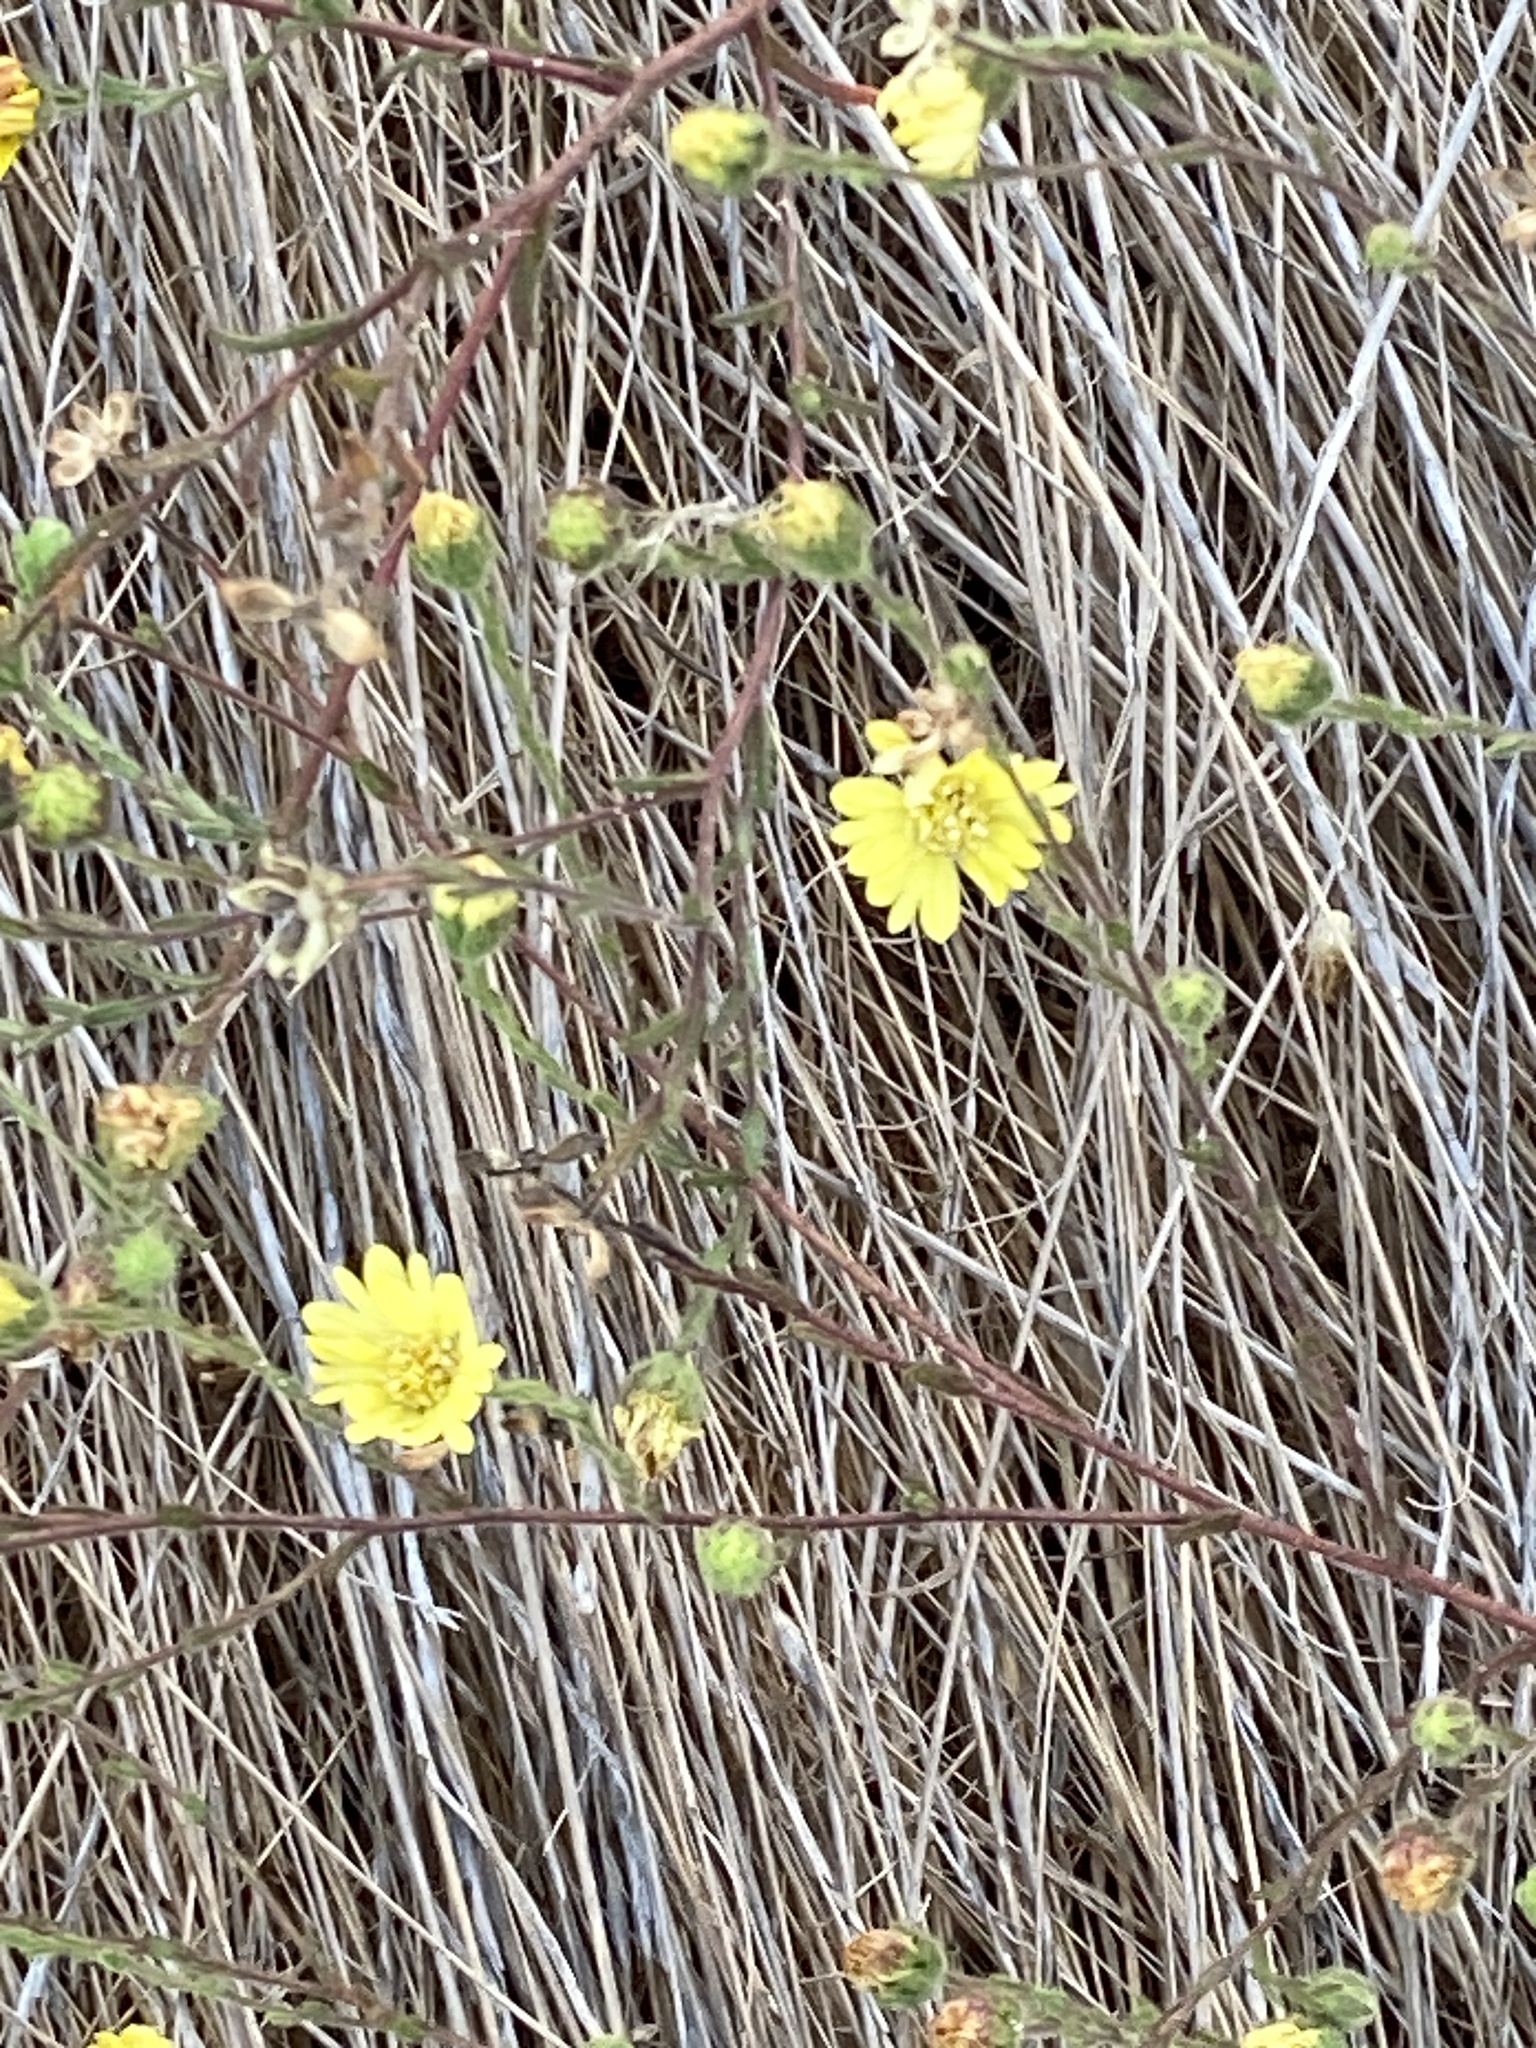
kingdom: Plantae
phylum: Tracheophyta
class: Magnoliopsida
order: Asterales
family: Asteraceae
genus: Hemizonia
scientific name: Hemizonia congesta
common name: Hayfield tarweed
